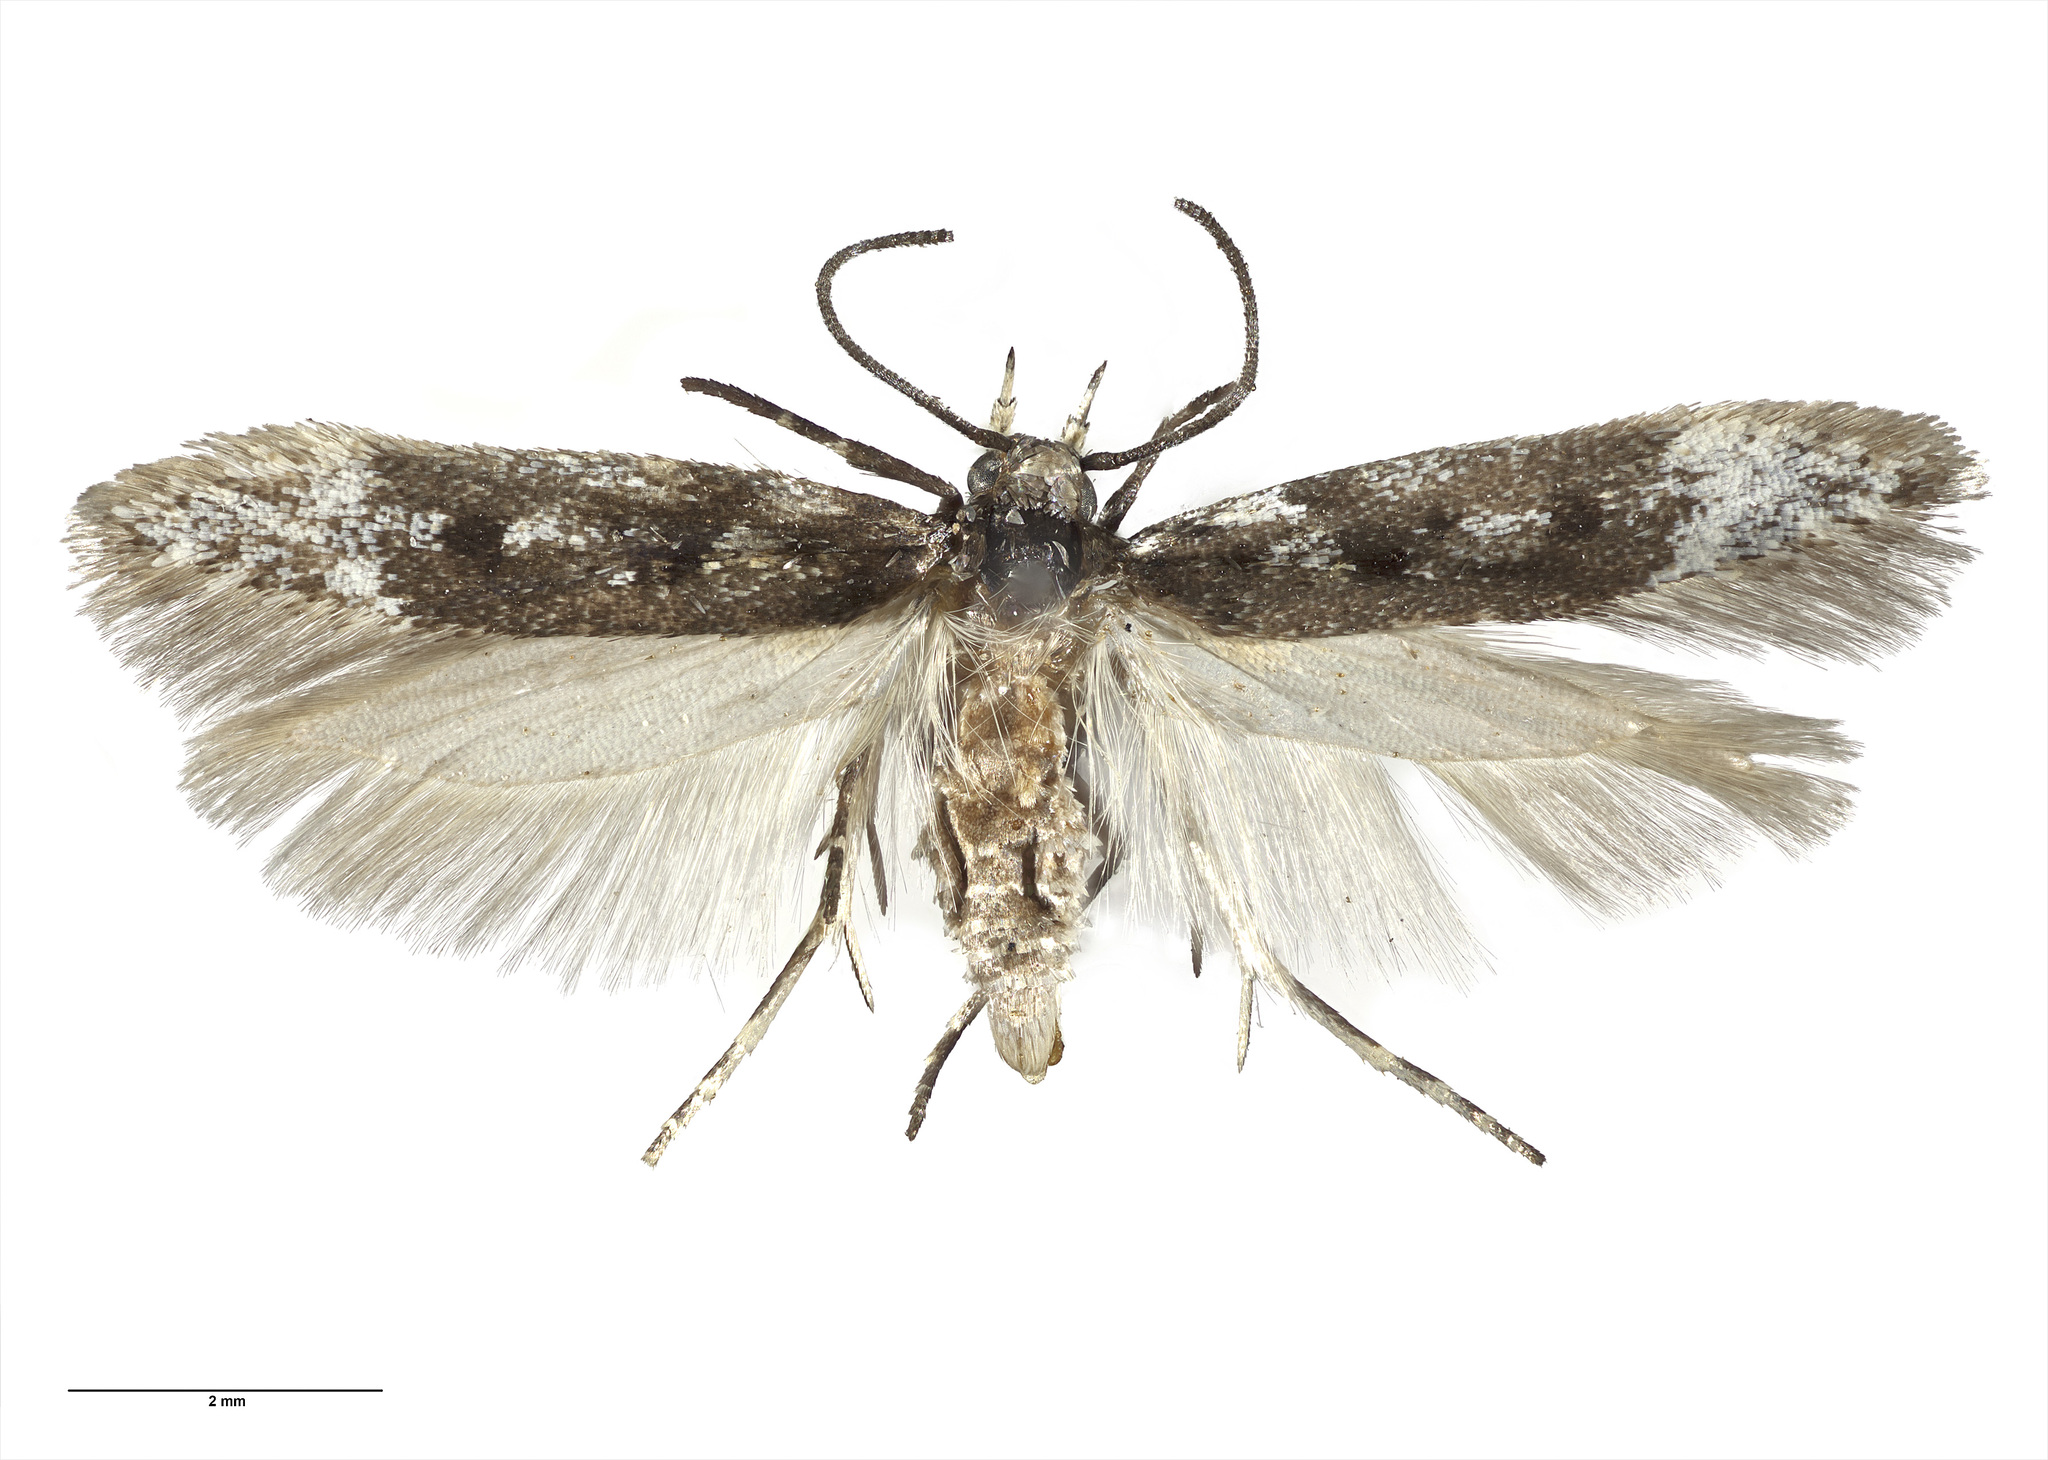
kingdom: Animalia
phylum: Arthropoda
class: Insecta
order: Lepidoptera
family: Gelechiidae
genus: Kiwaia
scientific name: Kiwaia caerulea
